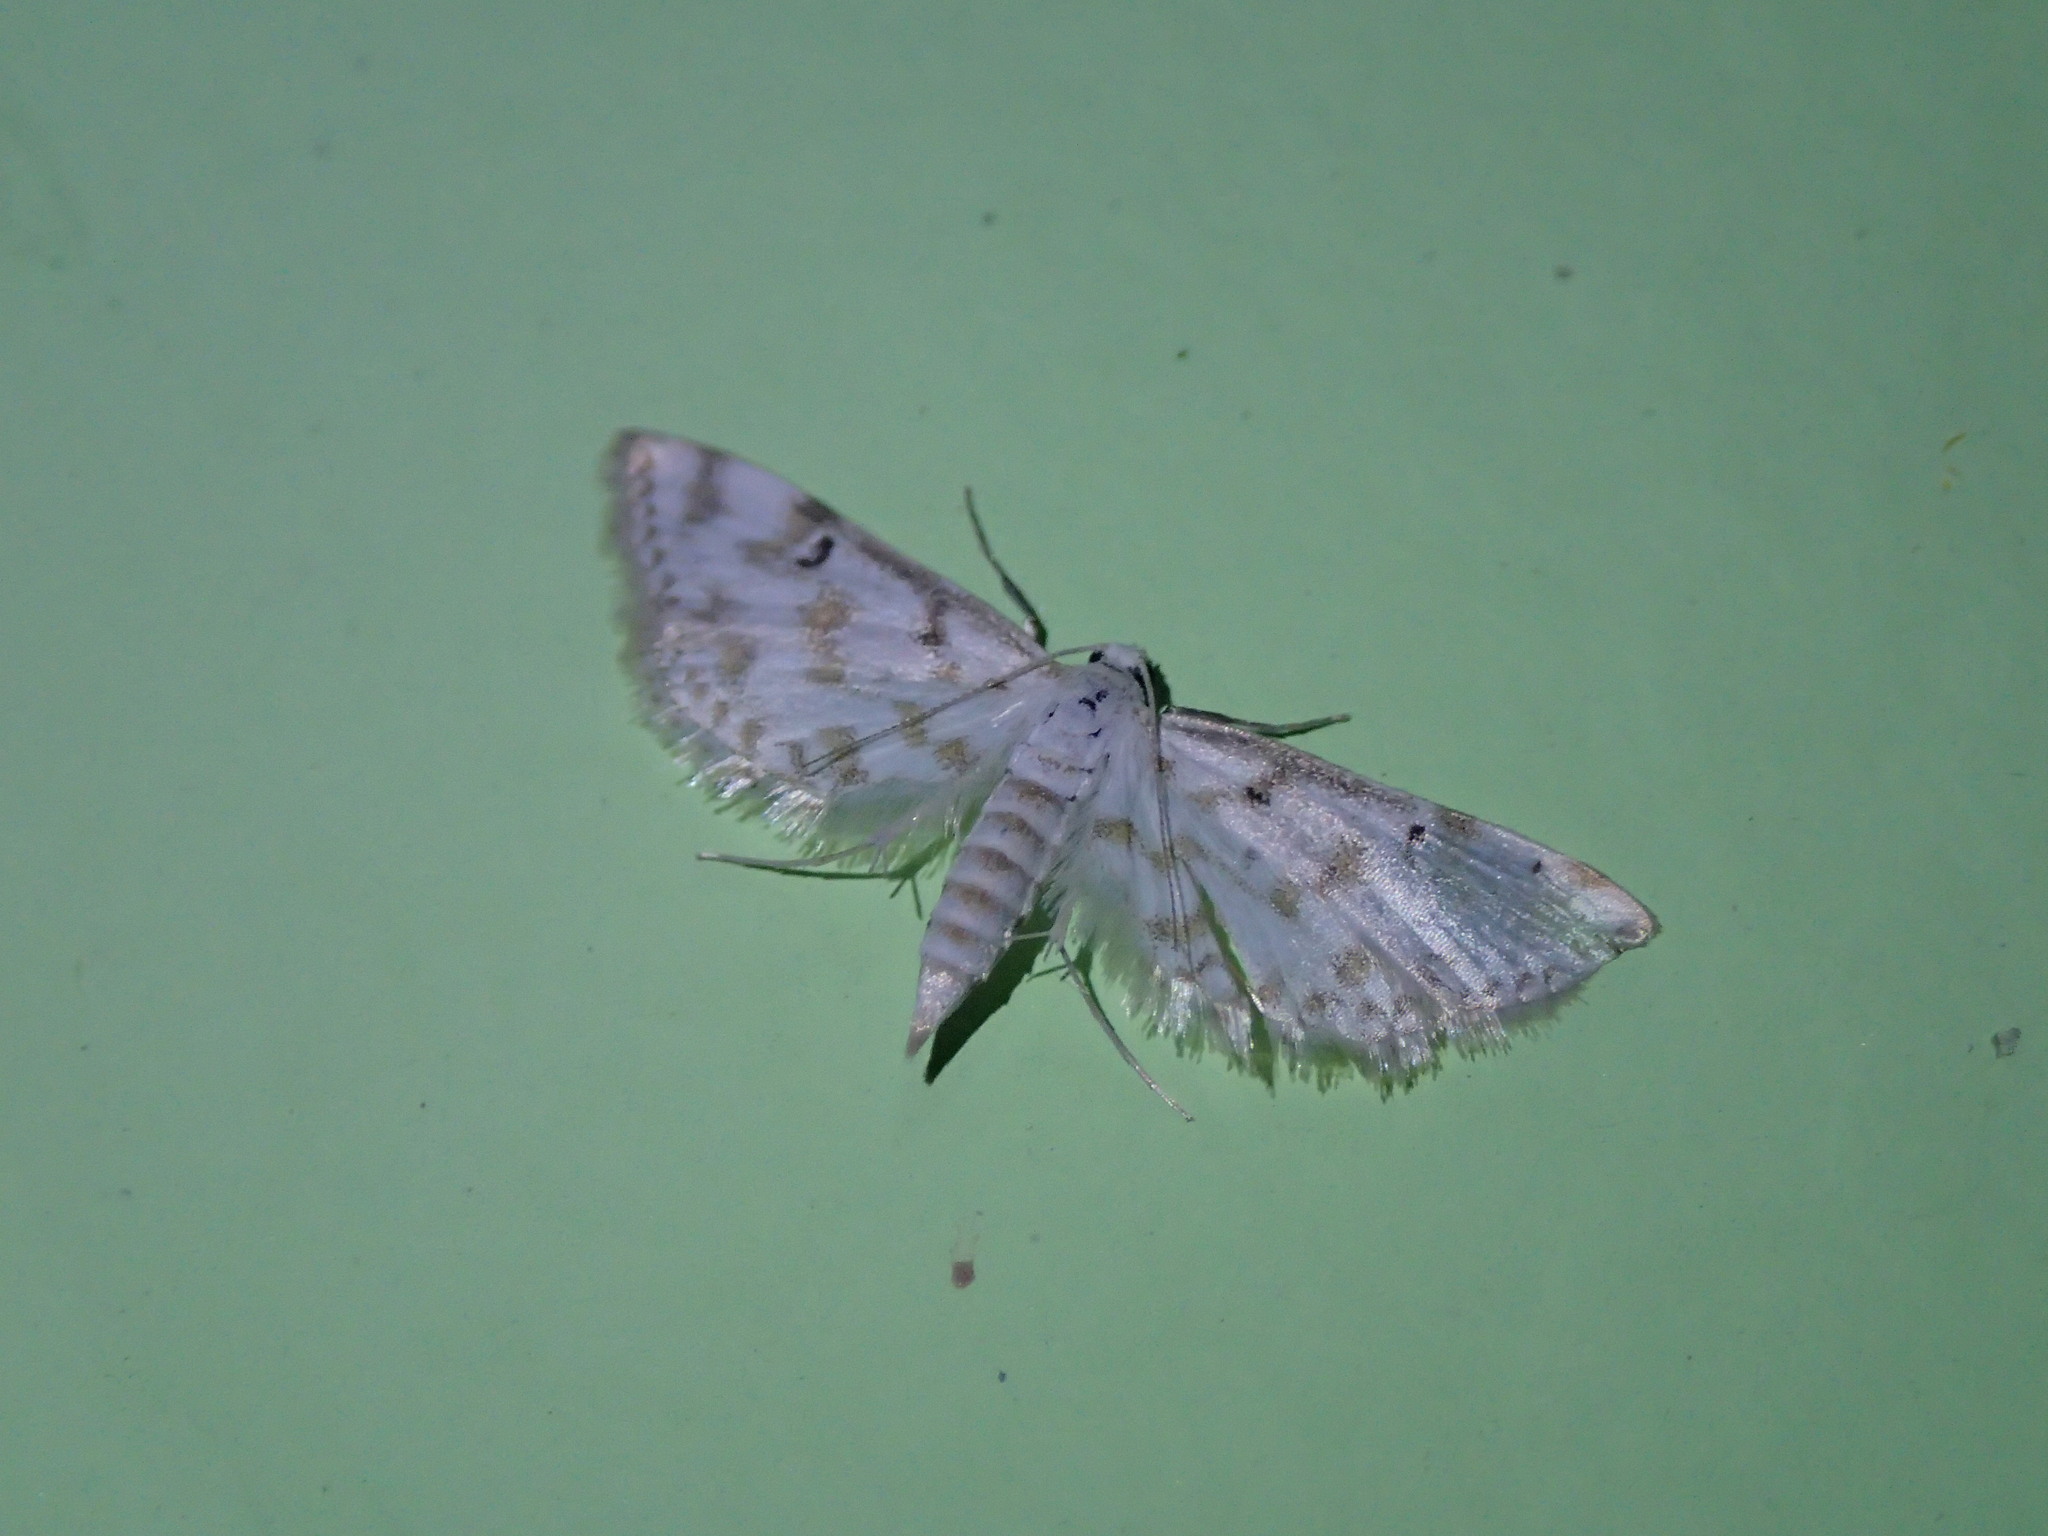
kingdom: Animalia
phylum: Arthropoda
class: Insecta
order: Lepidoptera
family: Crambidae
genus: Parapoynx
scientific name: Parapoynx diminutalis
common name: Hydrilla leafcutter
